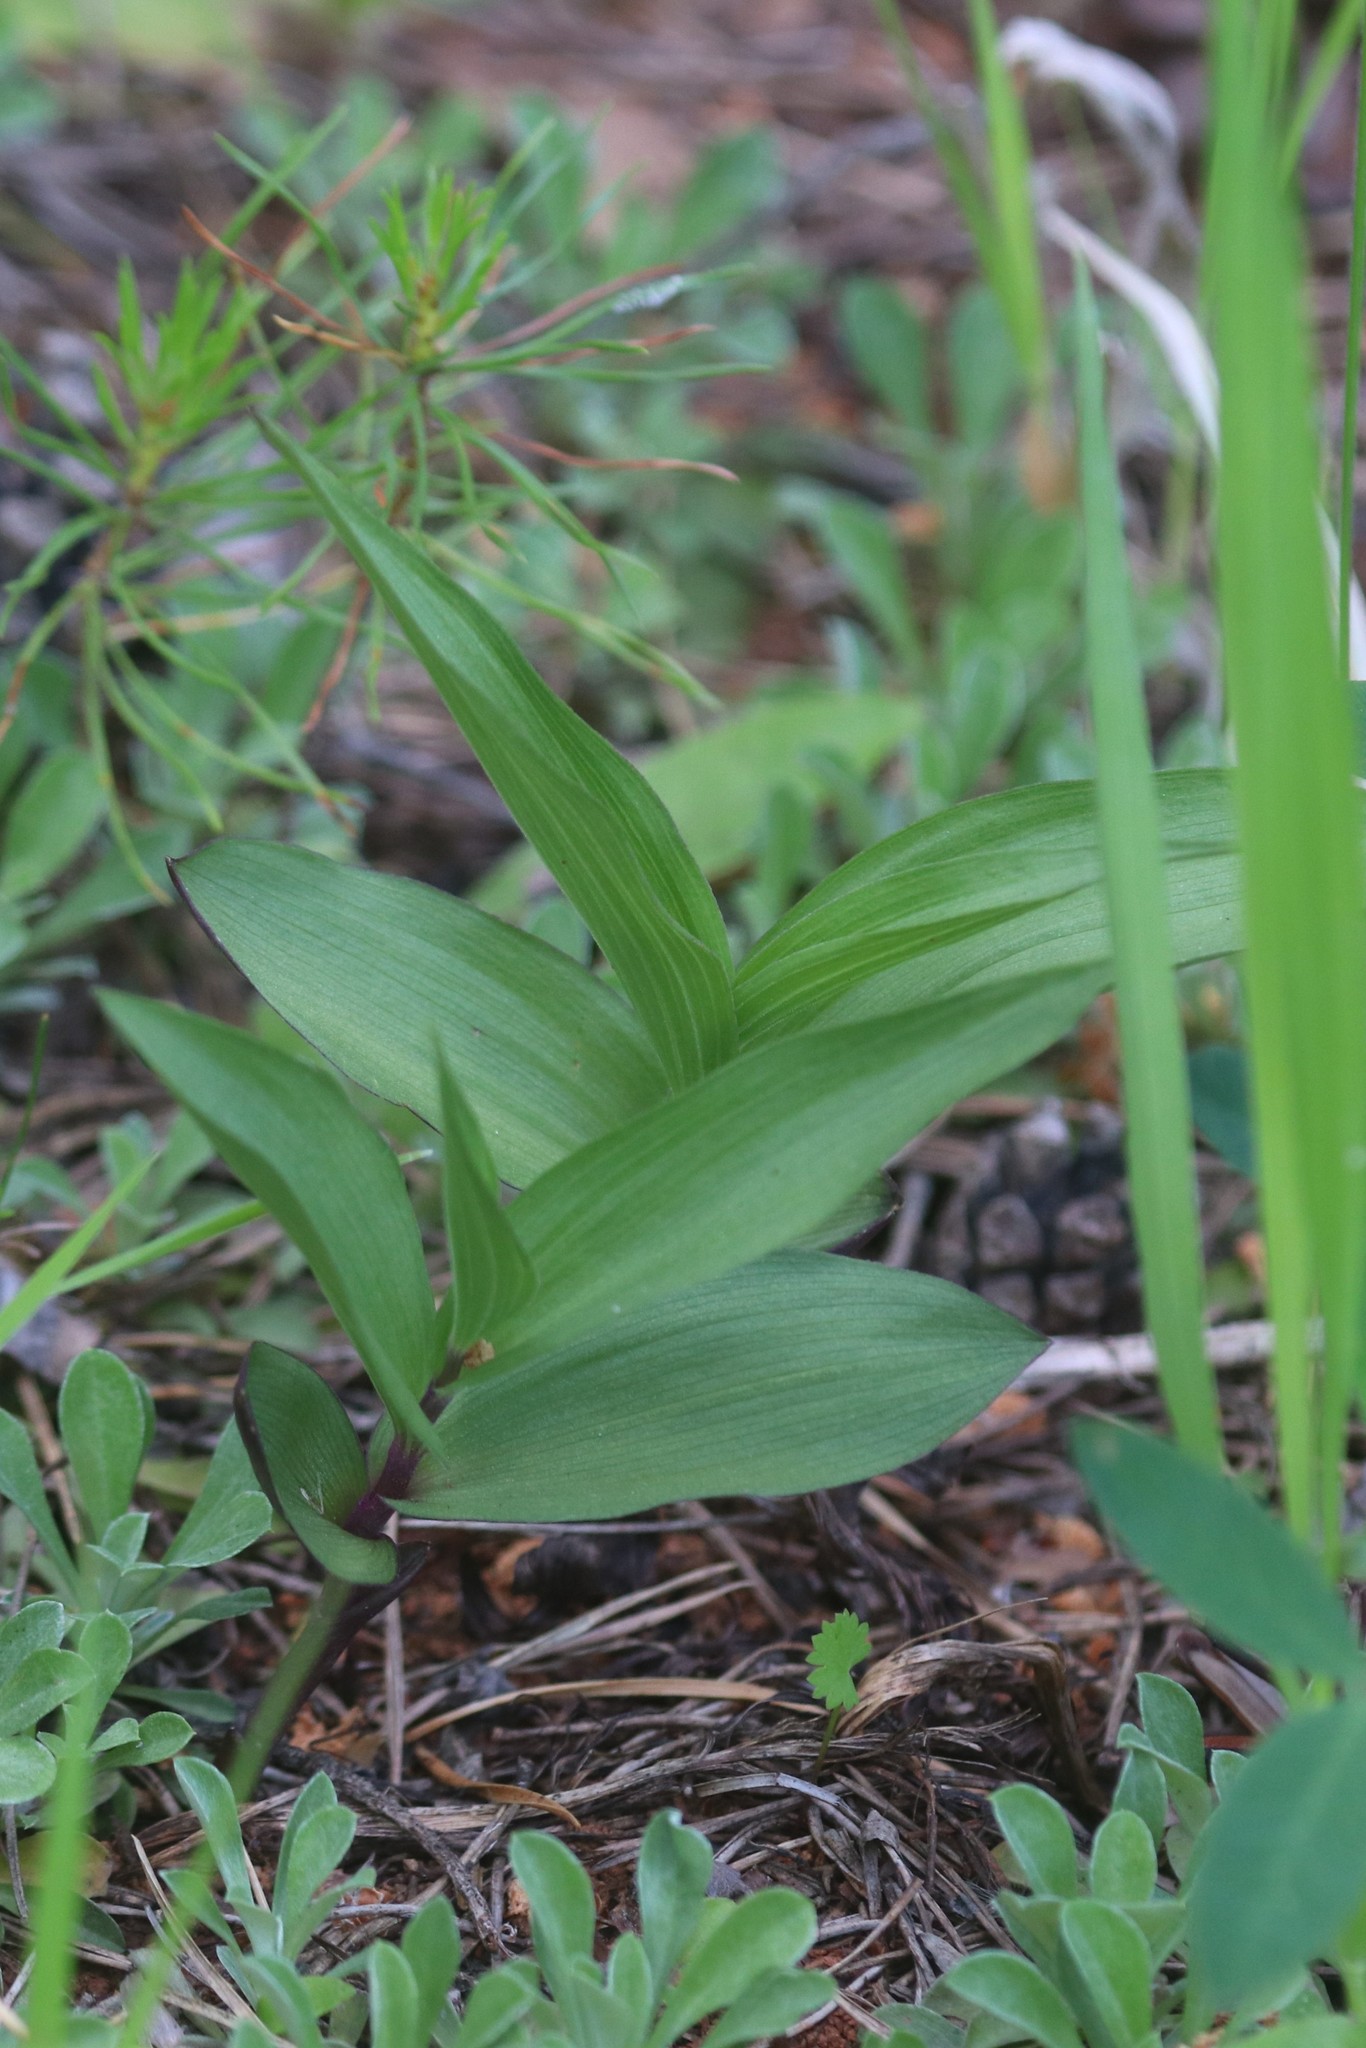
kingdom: Plantae
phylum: Tracheophyta
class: Liliopsida
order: Asparagales
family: Orchidaceae
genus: Epipactis
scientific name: Epipactis atrorubens
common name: Dark-red helleborine
